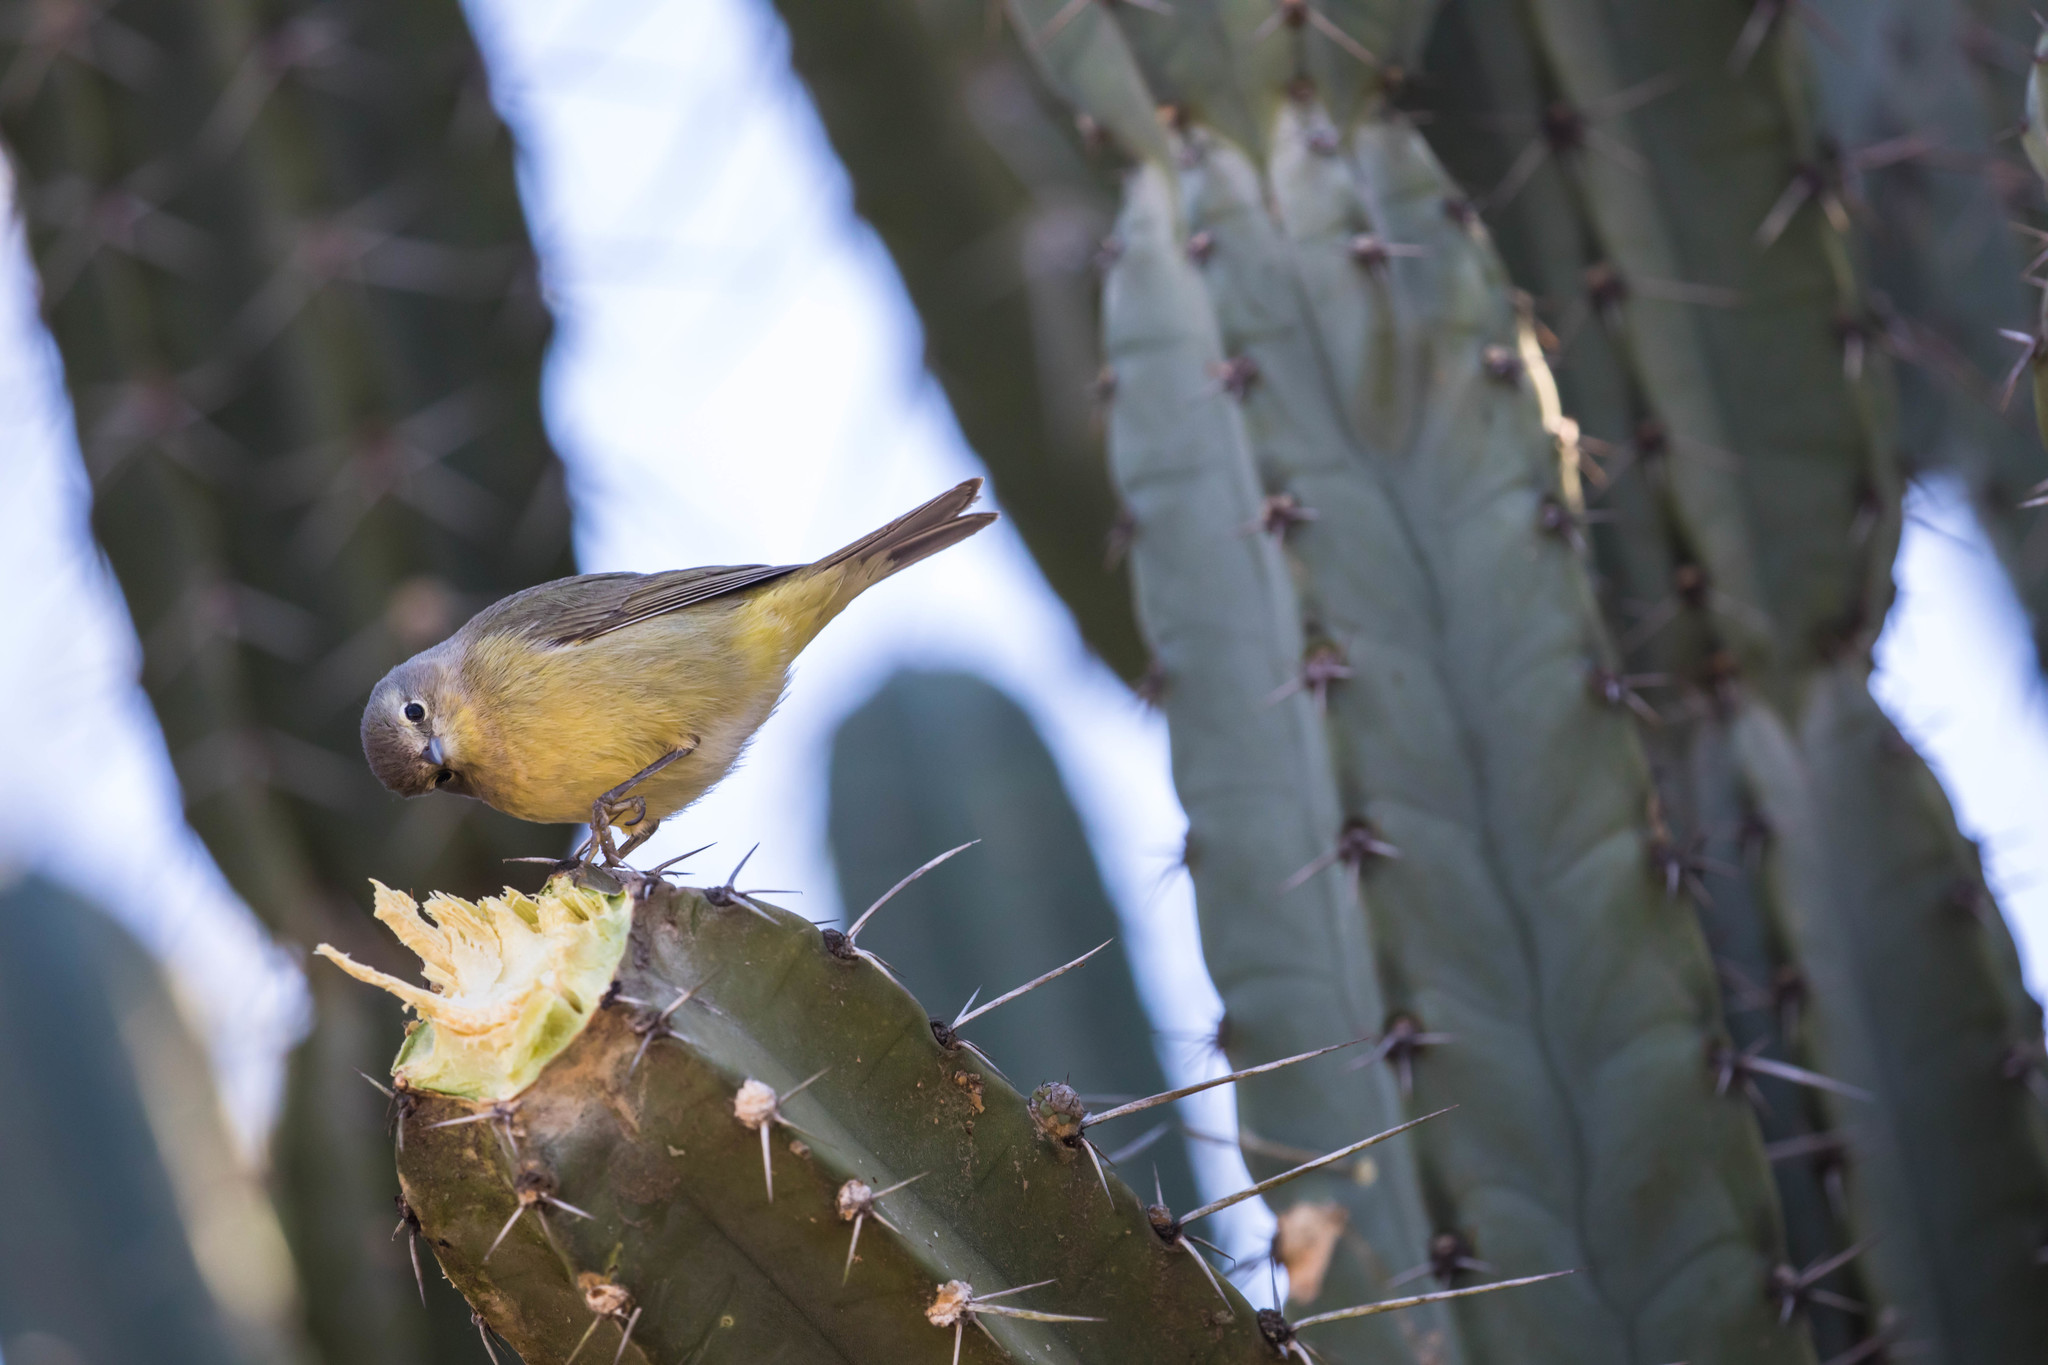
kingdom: Animalia
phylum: Chordata
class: Aves
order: Passeriformes
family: Parulidae
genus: Leiothlypis
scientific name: Leiothlypis celata
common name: Orange-crowned warbler
